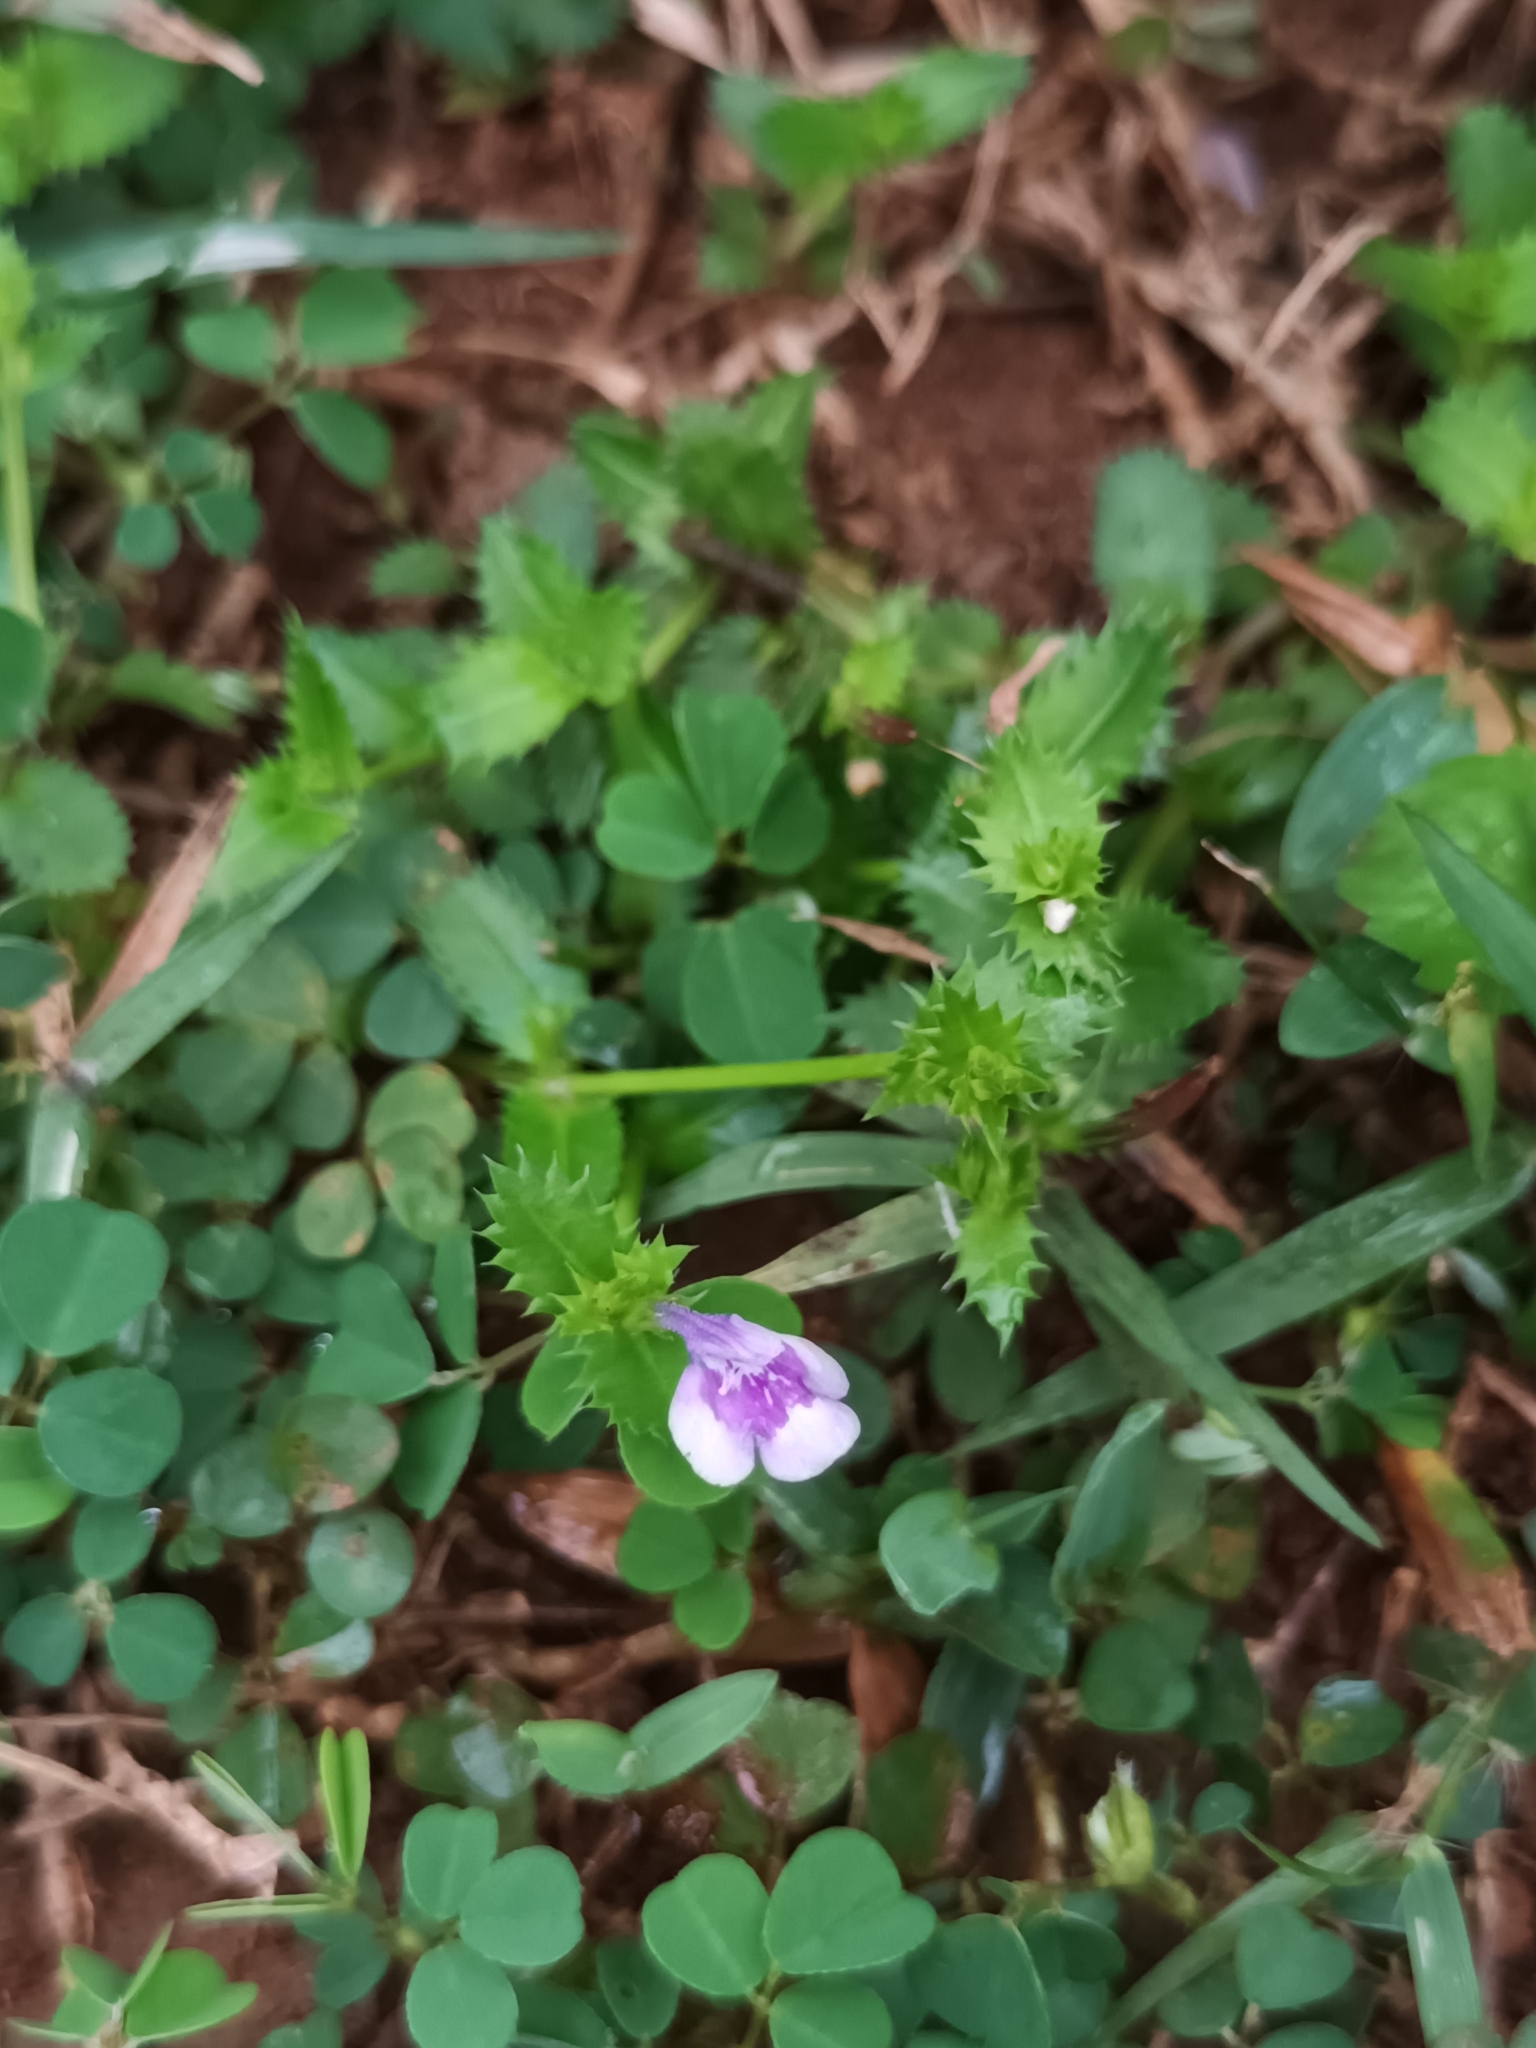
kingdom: Plantae
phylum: Tracheophyta
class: Magnoliopsida
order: Lamiales
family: Linderniaceae
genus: Bonnaya
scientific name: Bonnaya ciliata
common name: Hairy slitwort
